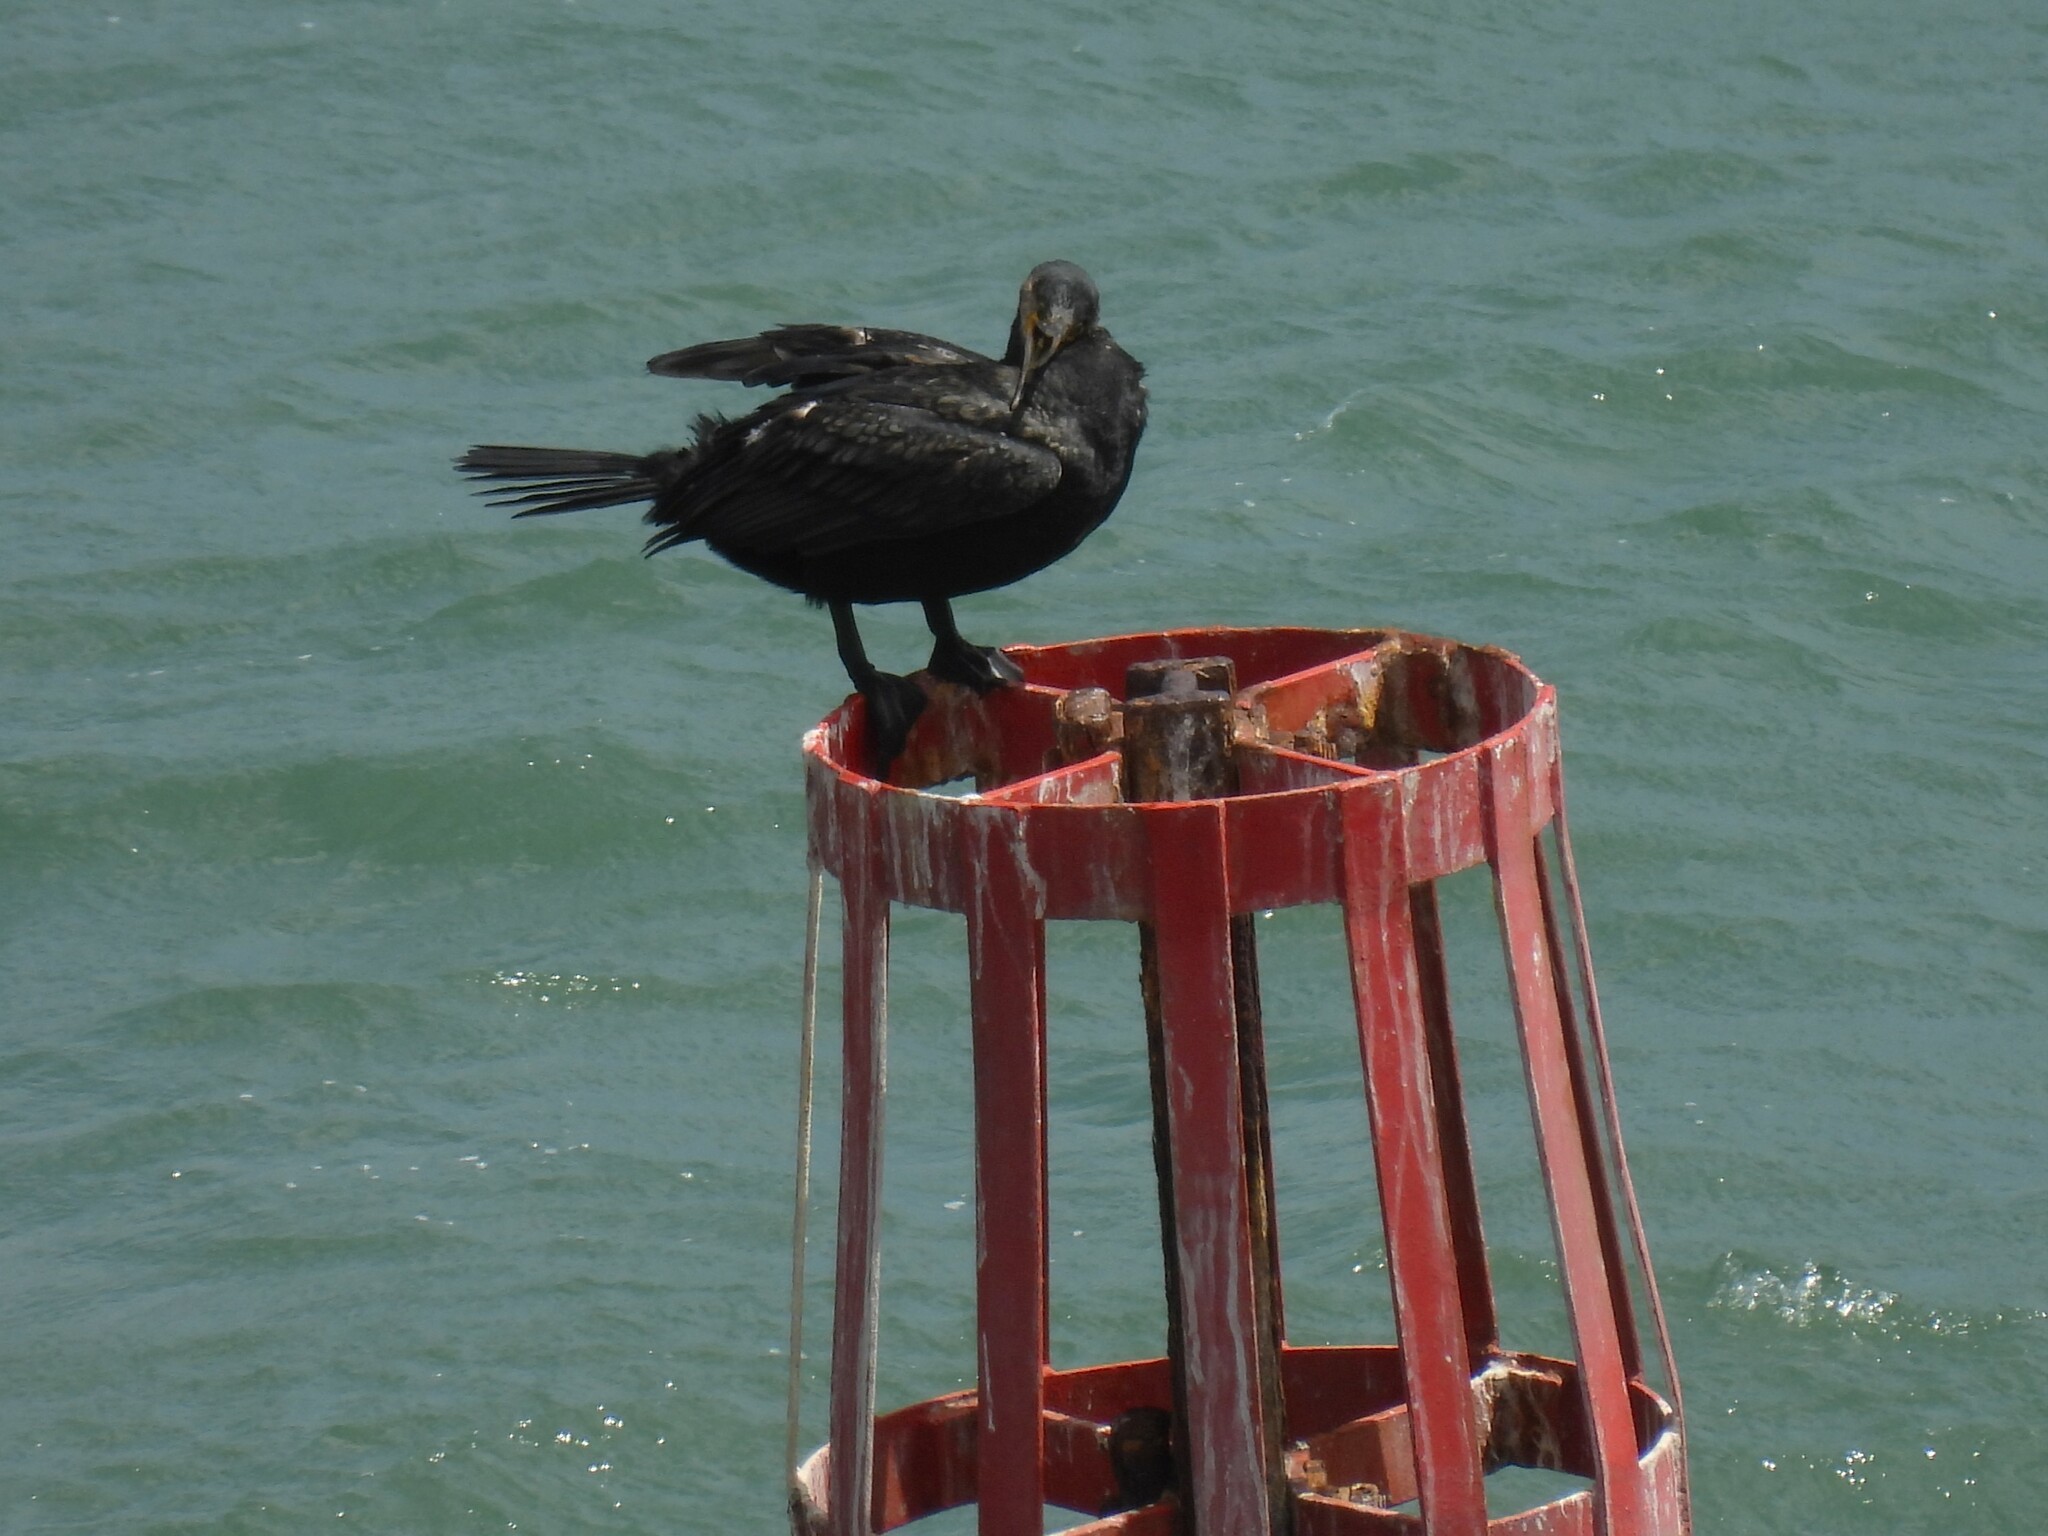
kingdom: Animalia
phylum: Chordata
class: Aves
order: Suliformes
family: Phalacrocoracidae
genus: Phalacrocorax
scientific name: Phalacrocorax carbo
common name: Great cormorant
